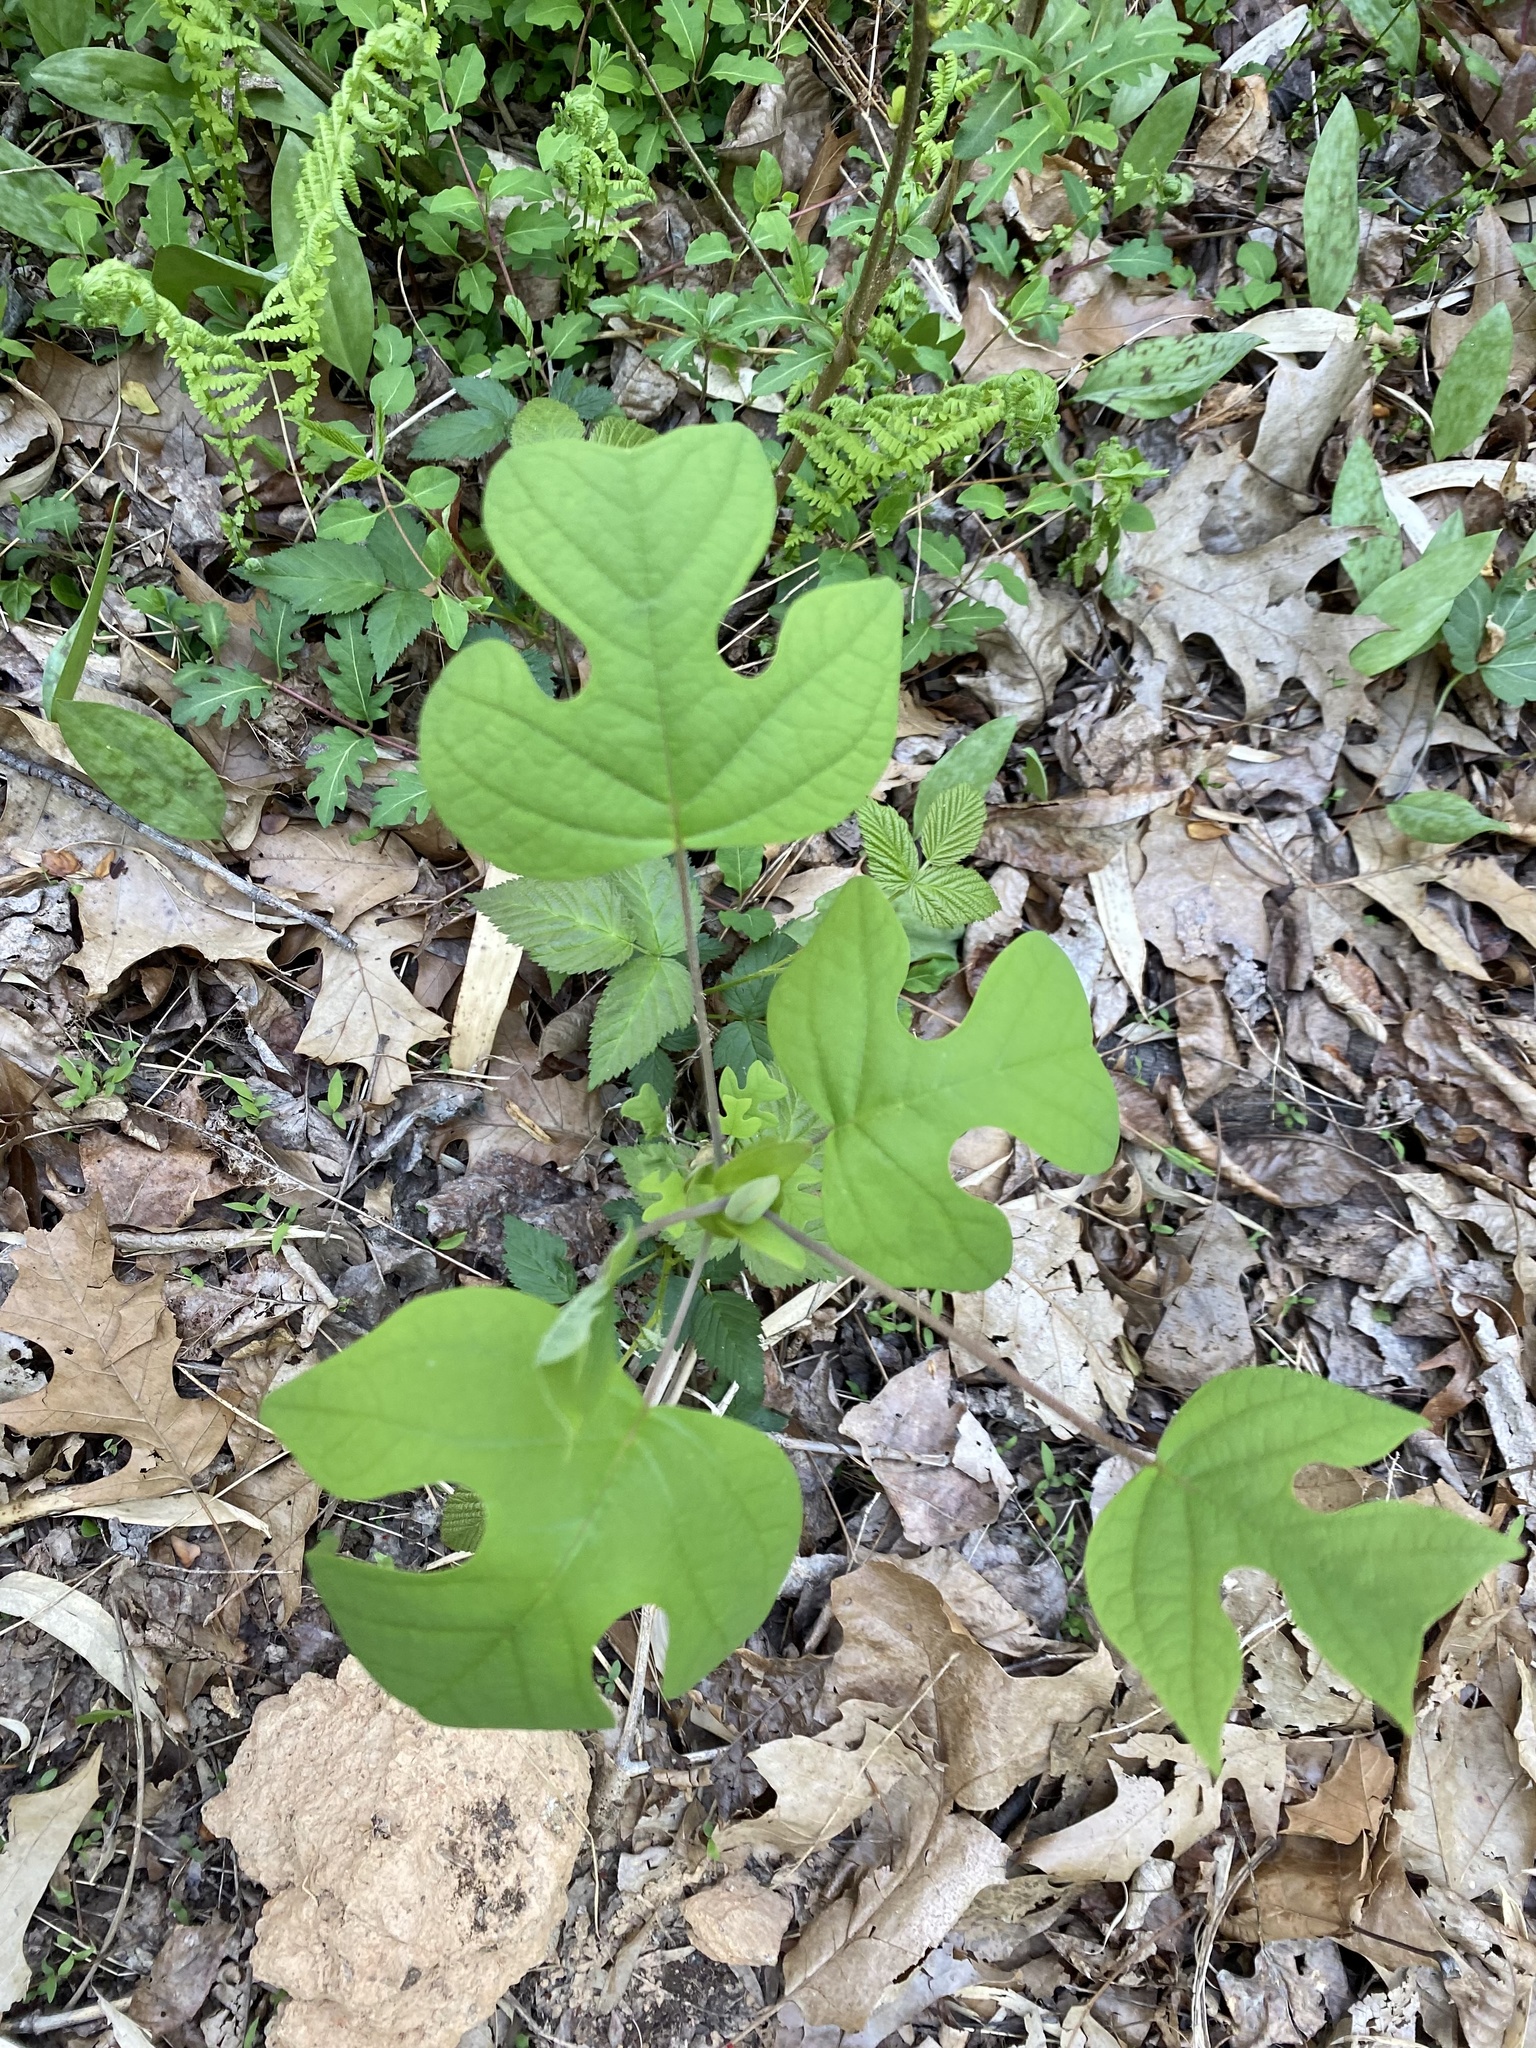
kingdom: Plantae
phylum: Tracheophyta
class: Magnoliopsida
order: Magnoliales
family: Magnoliaceae
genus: Liriodendron
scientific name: Liriodendron tulipifera
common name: Tulip tree
